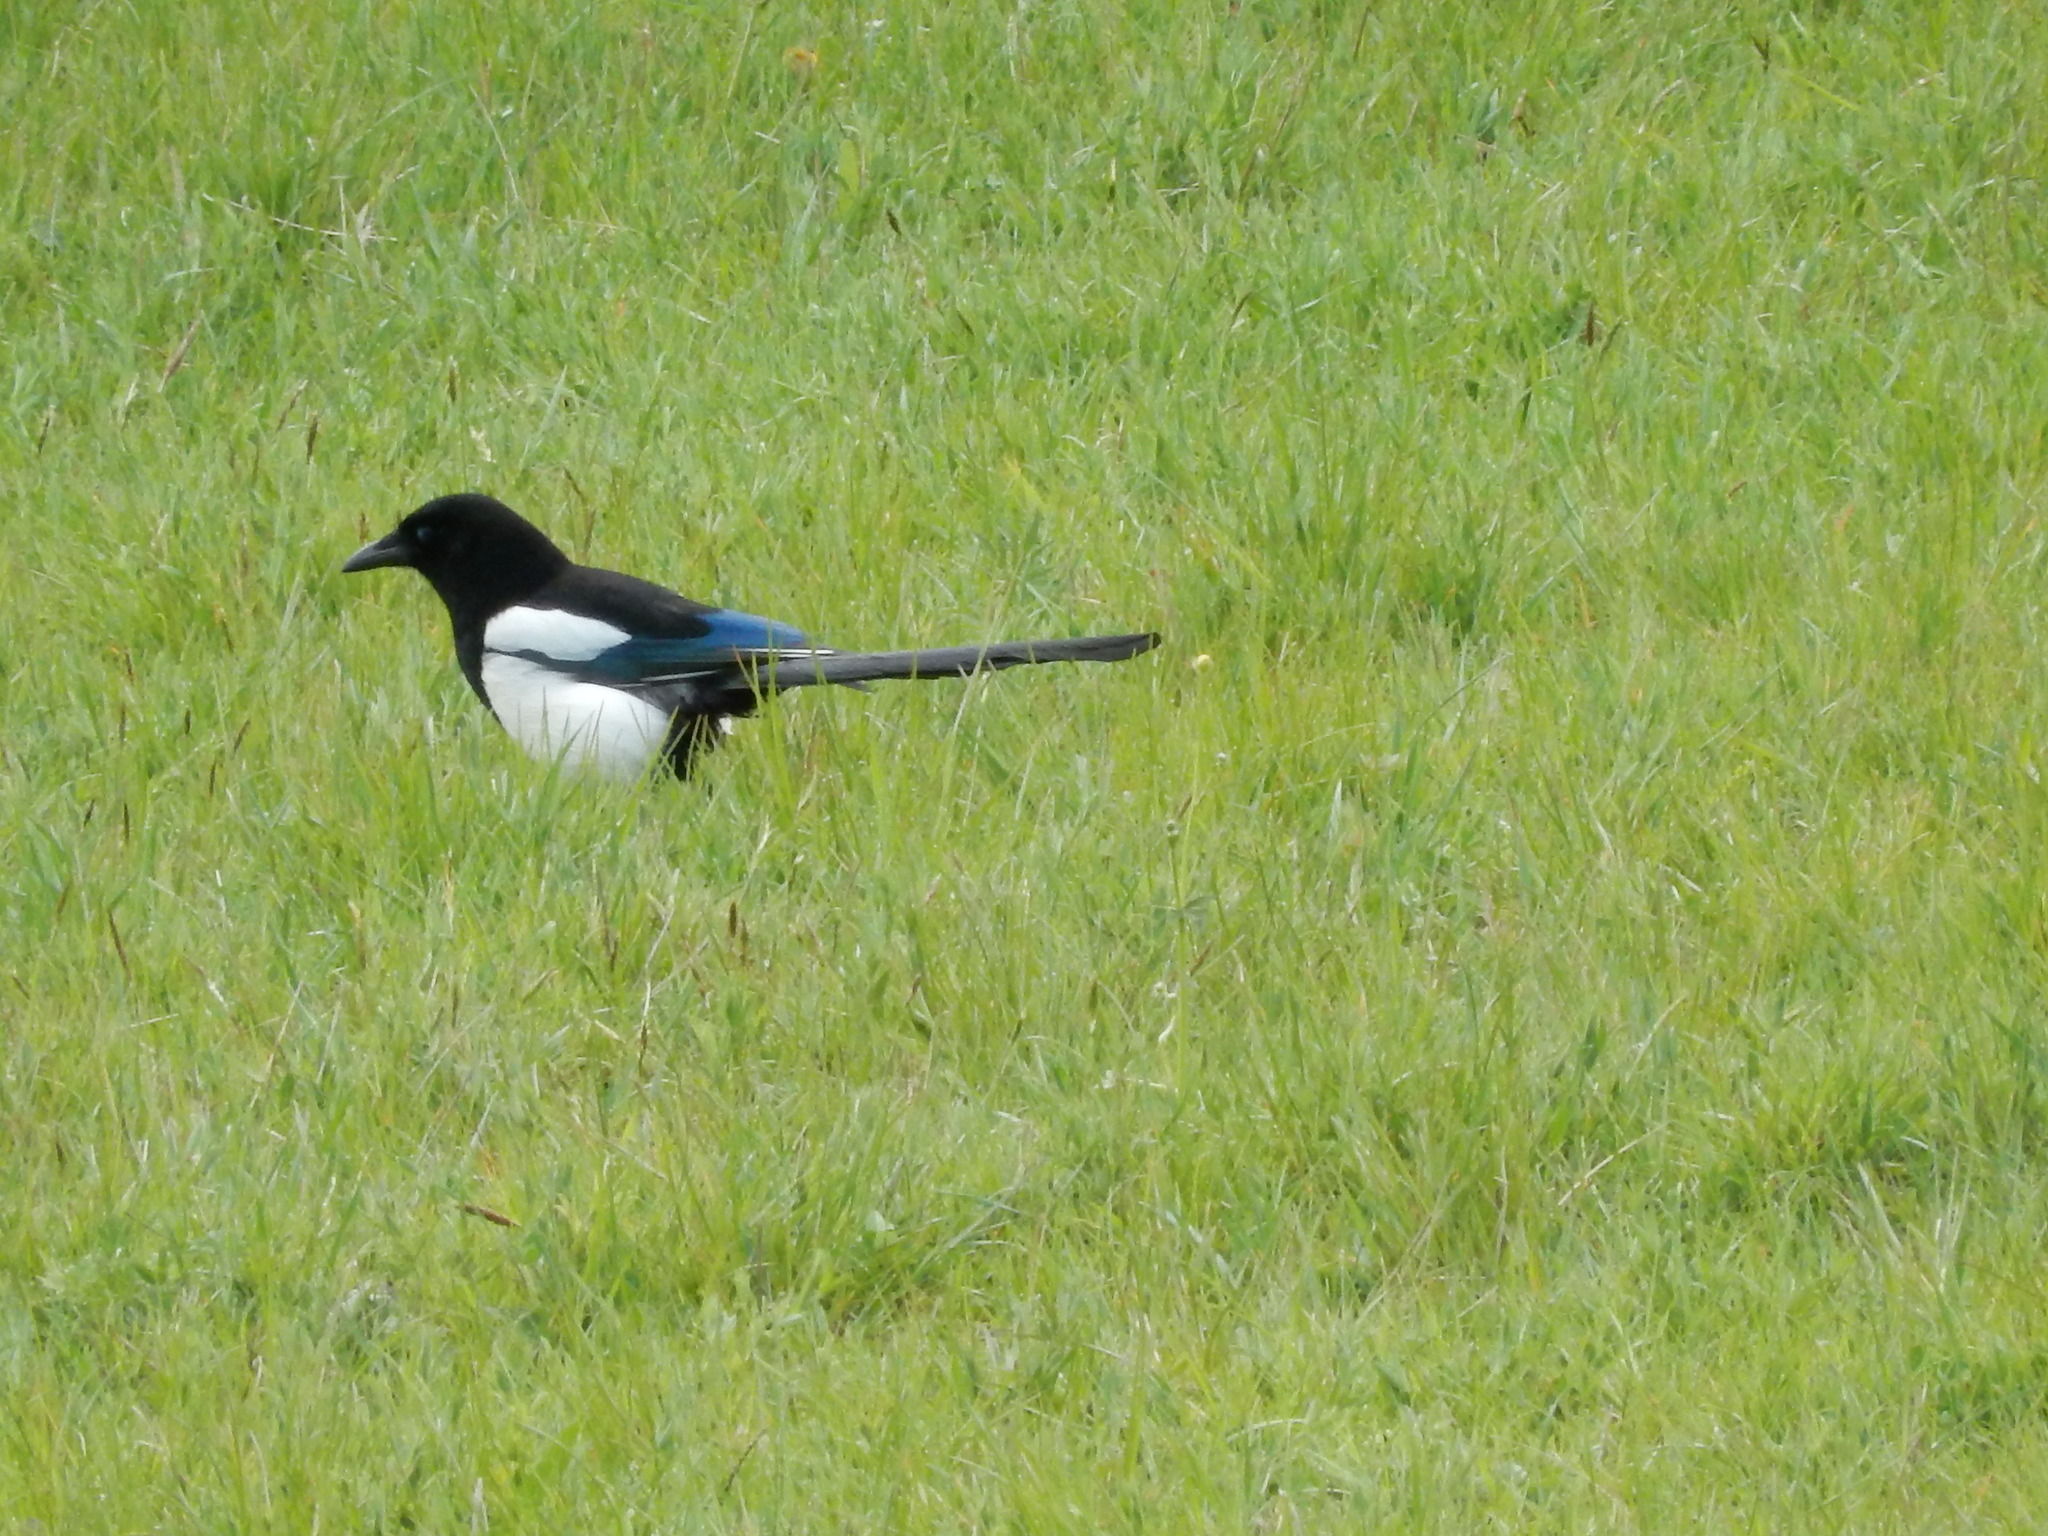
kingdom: Animalia
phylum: Chordata
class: Aves
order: Passeriformes
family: Corvidae
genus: Pica
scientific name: Pica pica
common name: Eurasian magpie
